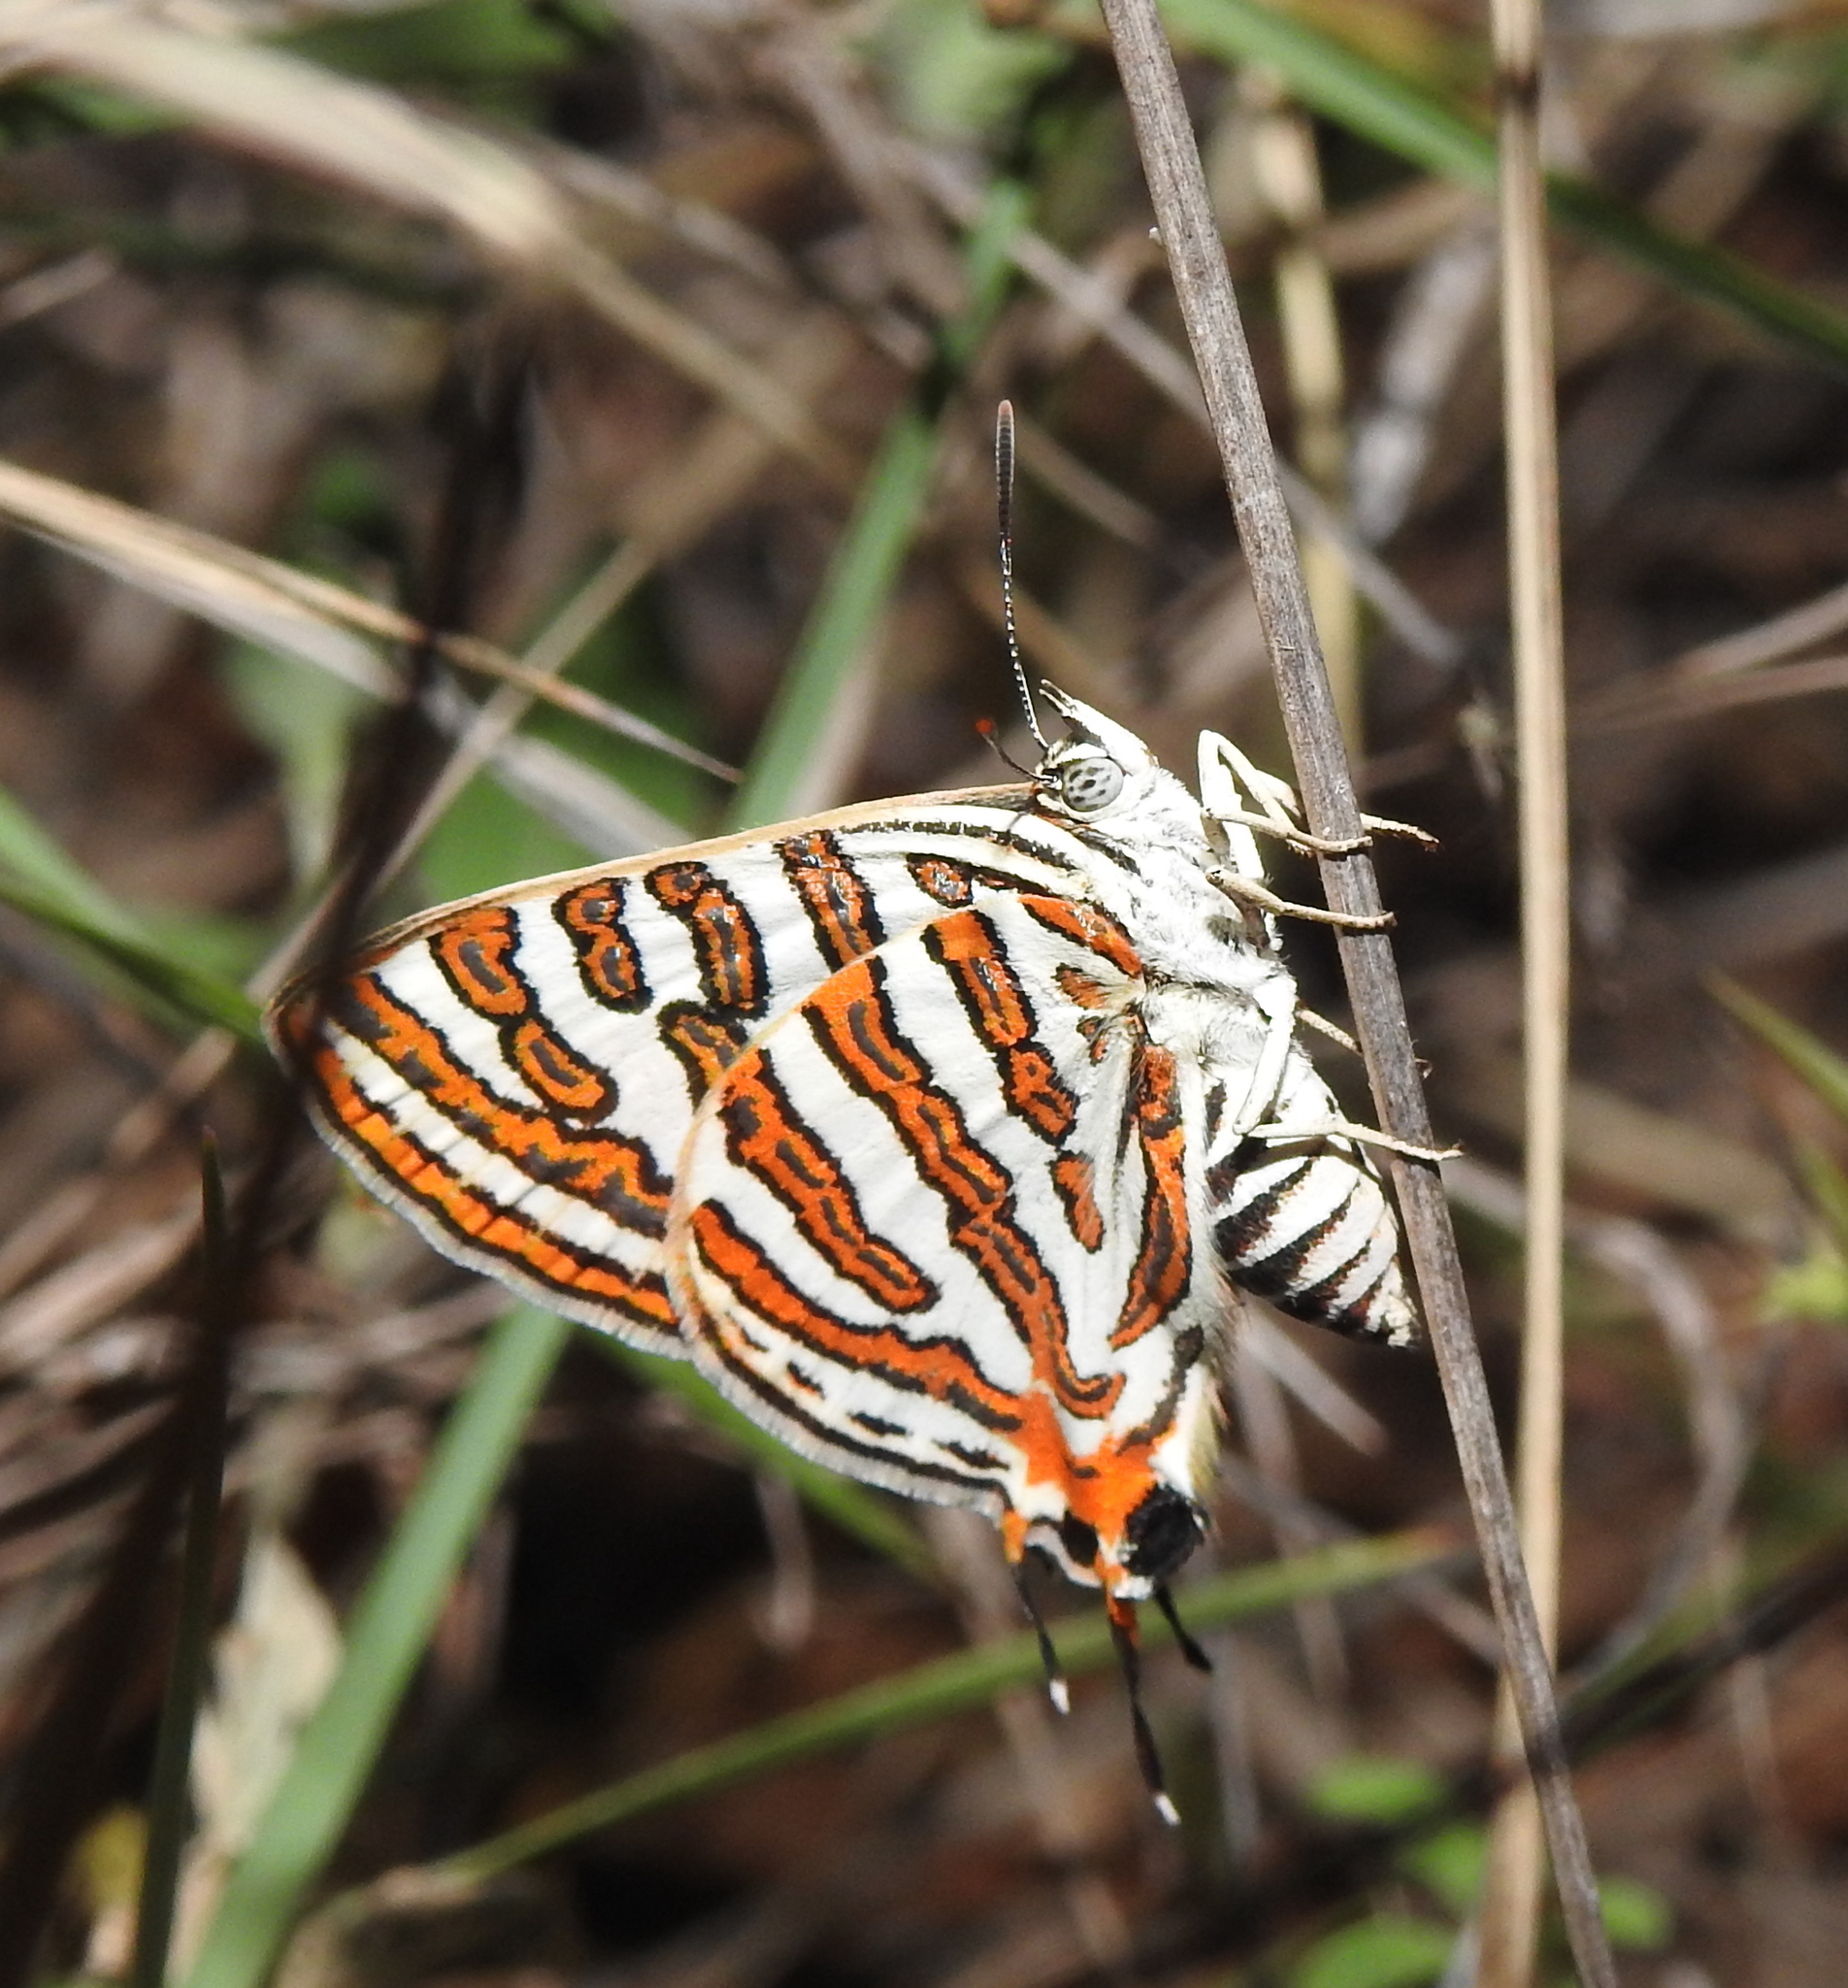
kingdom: Animalia
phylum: Arthropoda
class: Insecta
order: Lepidoptera
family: Lycaenidae
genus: Cigaritis
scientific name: Cigaritis vulcanus
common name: Common silverline
